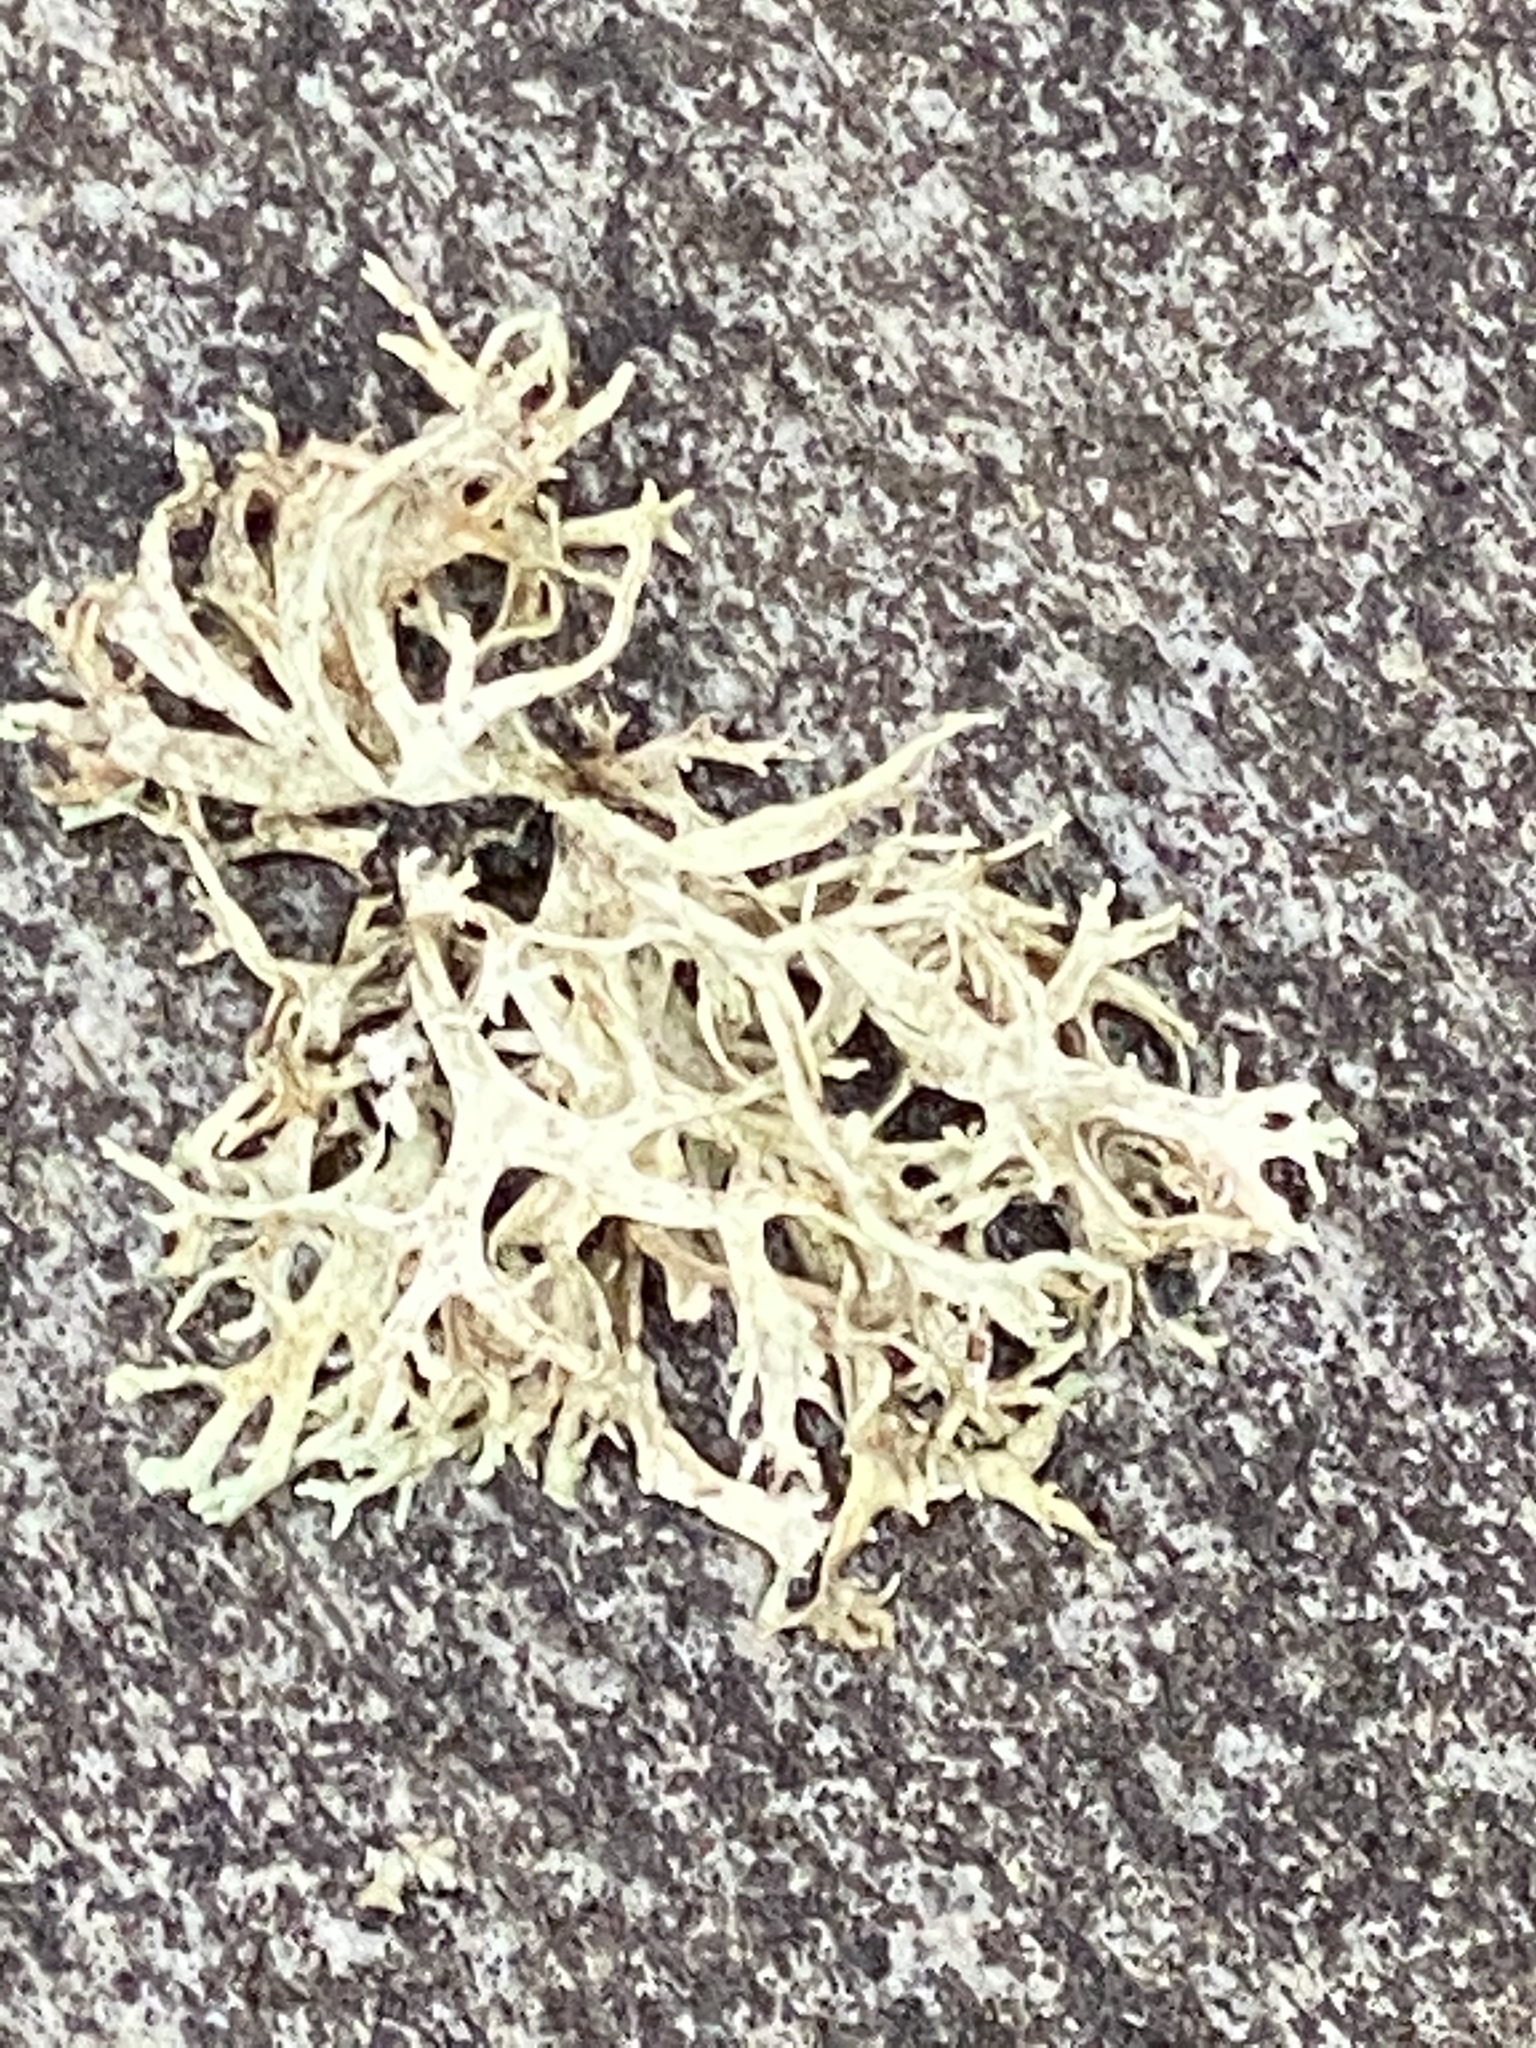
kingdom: Fungi
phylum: Ascomycota
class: Lecanoromycetes
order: Lecanorales
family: Parmeliaceae
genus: Evernia
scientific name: Evernia prunastri
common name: Oak moss
